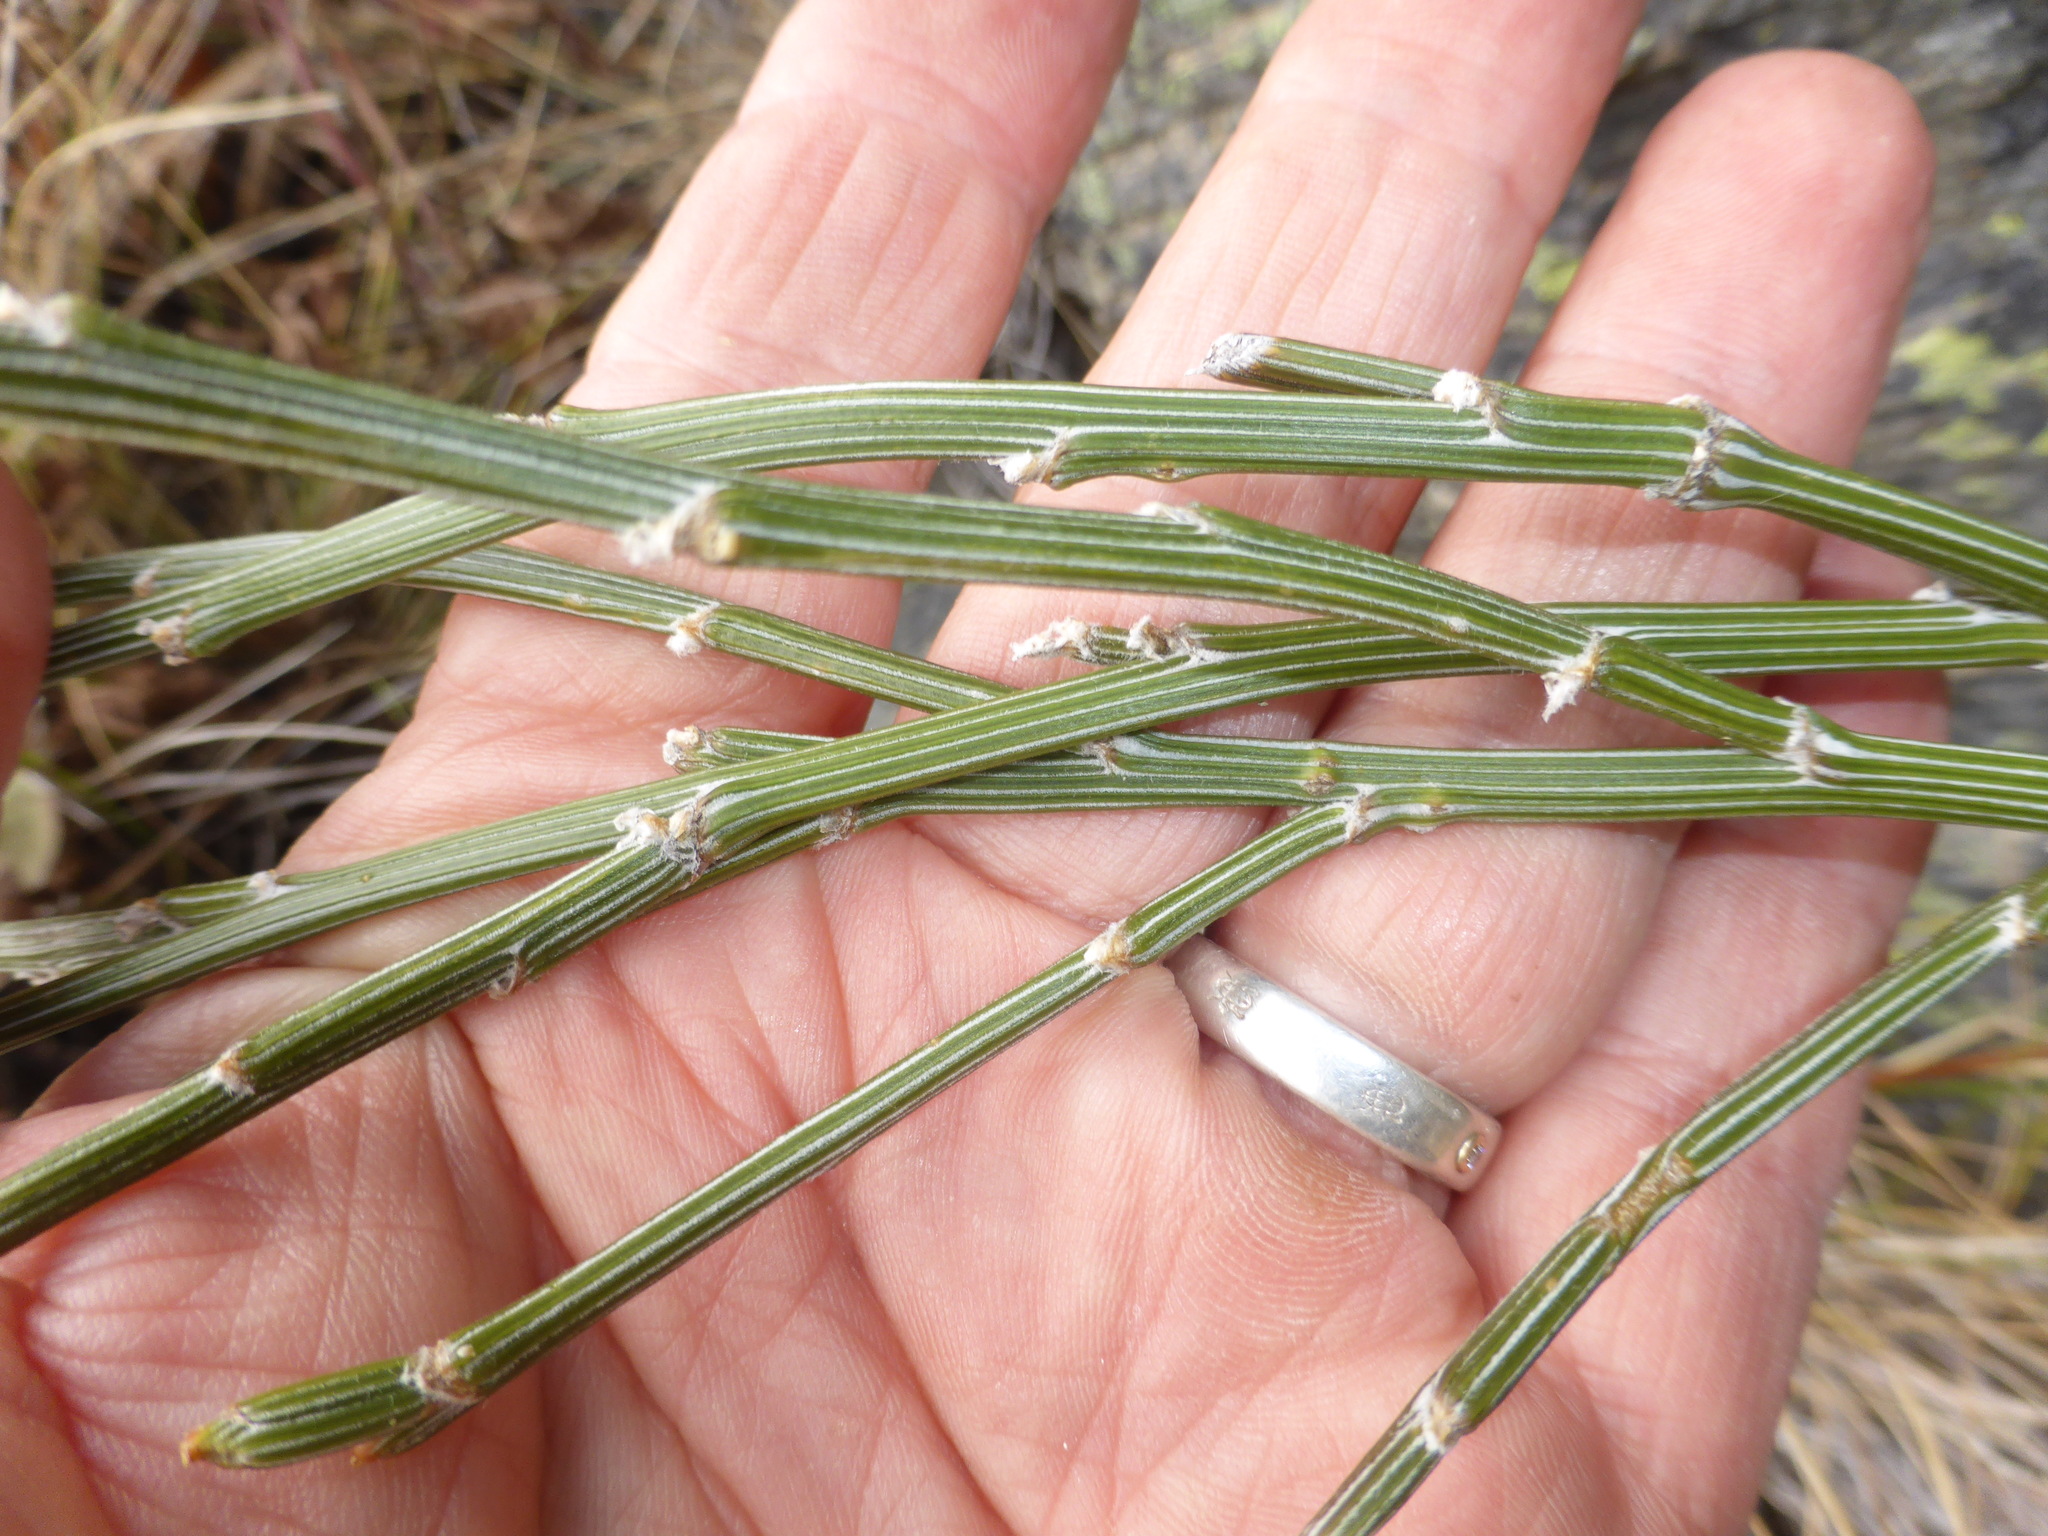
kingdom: Plantae
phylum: Tracheophyta
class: Magnoliopsida
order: Fabales
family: Fabaceae
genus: Carmichaelia
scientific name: Carmichaelia crassicaulis
